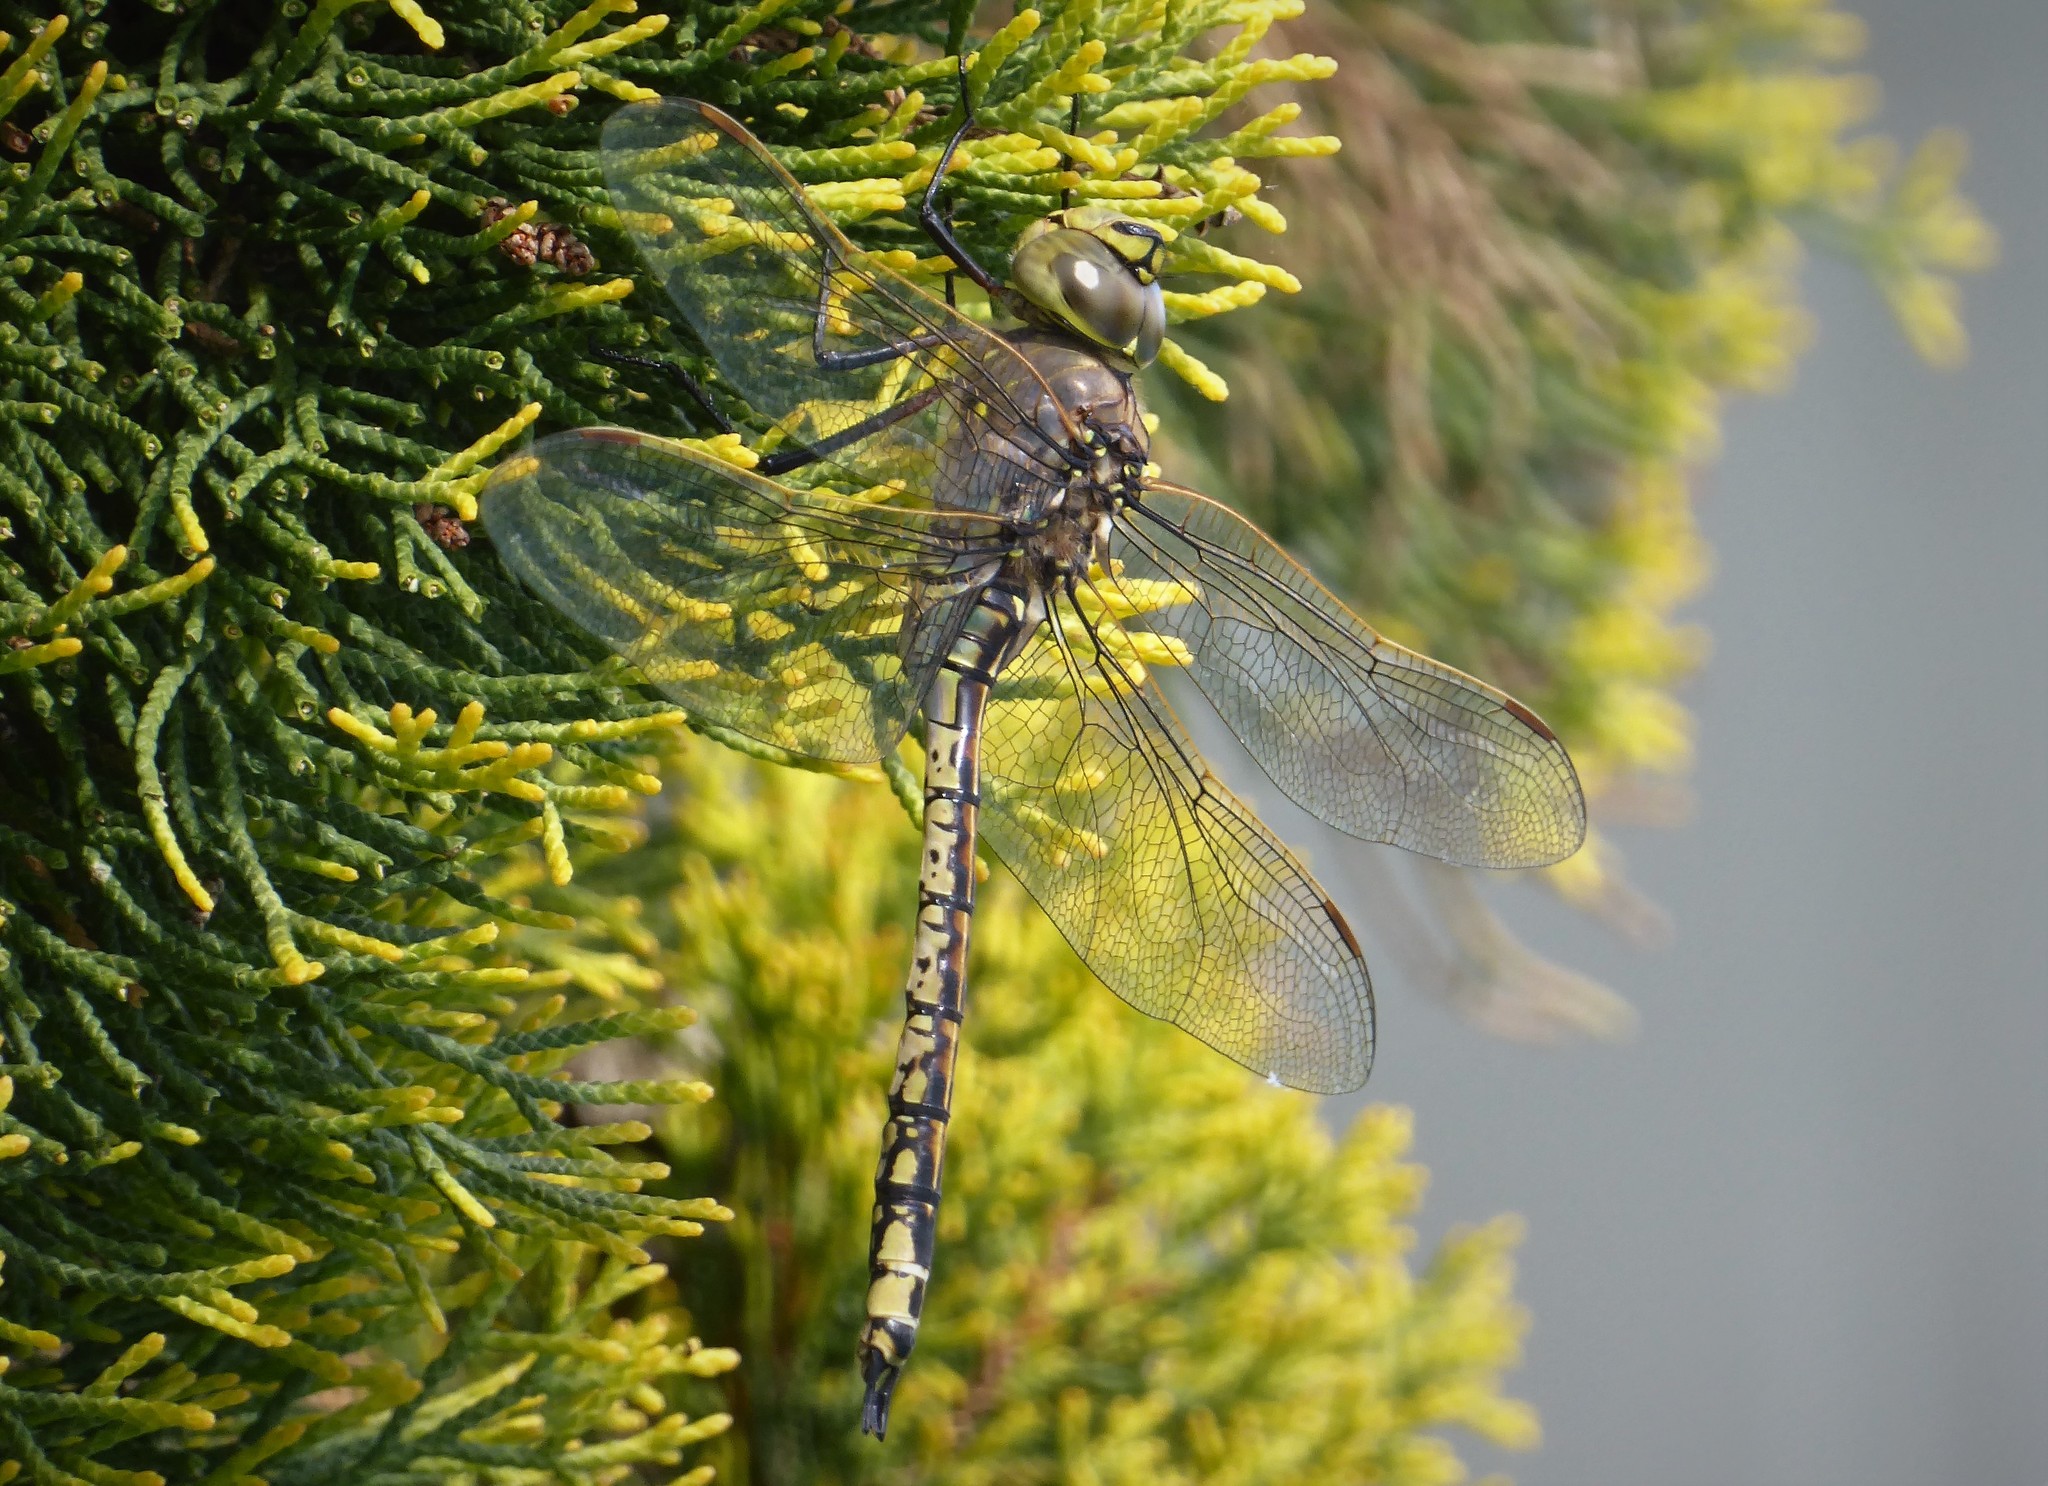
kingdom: Animalia
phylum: Arthropoda
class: Insecta
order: Odonata
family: Aeshnidae
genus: Anax
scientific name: Anax papuensis
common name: Australian emperor
